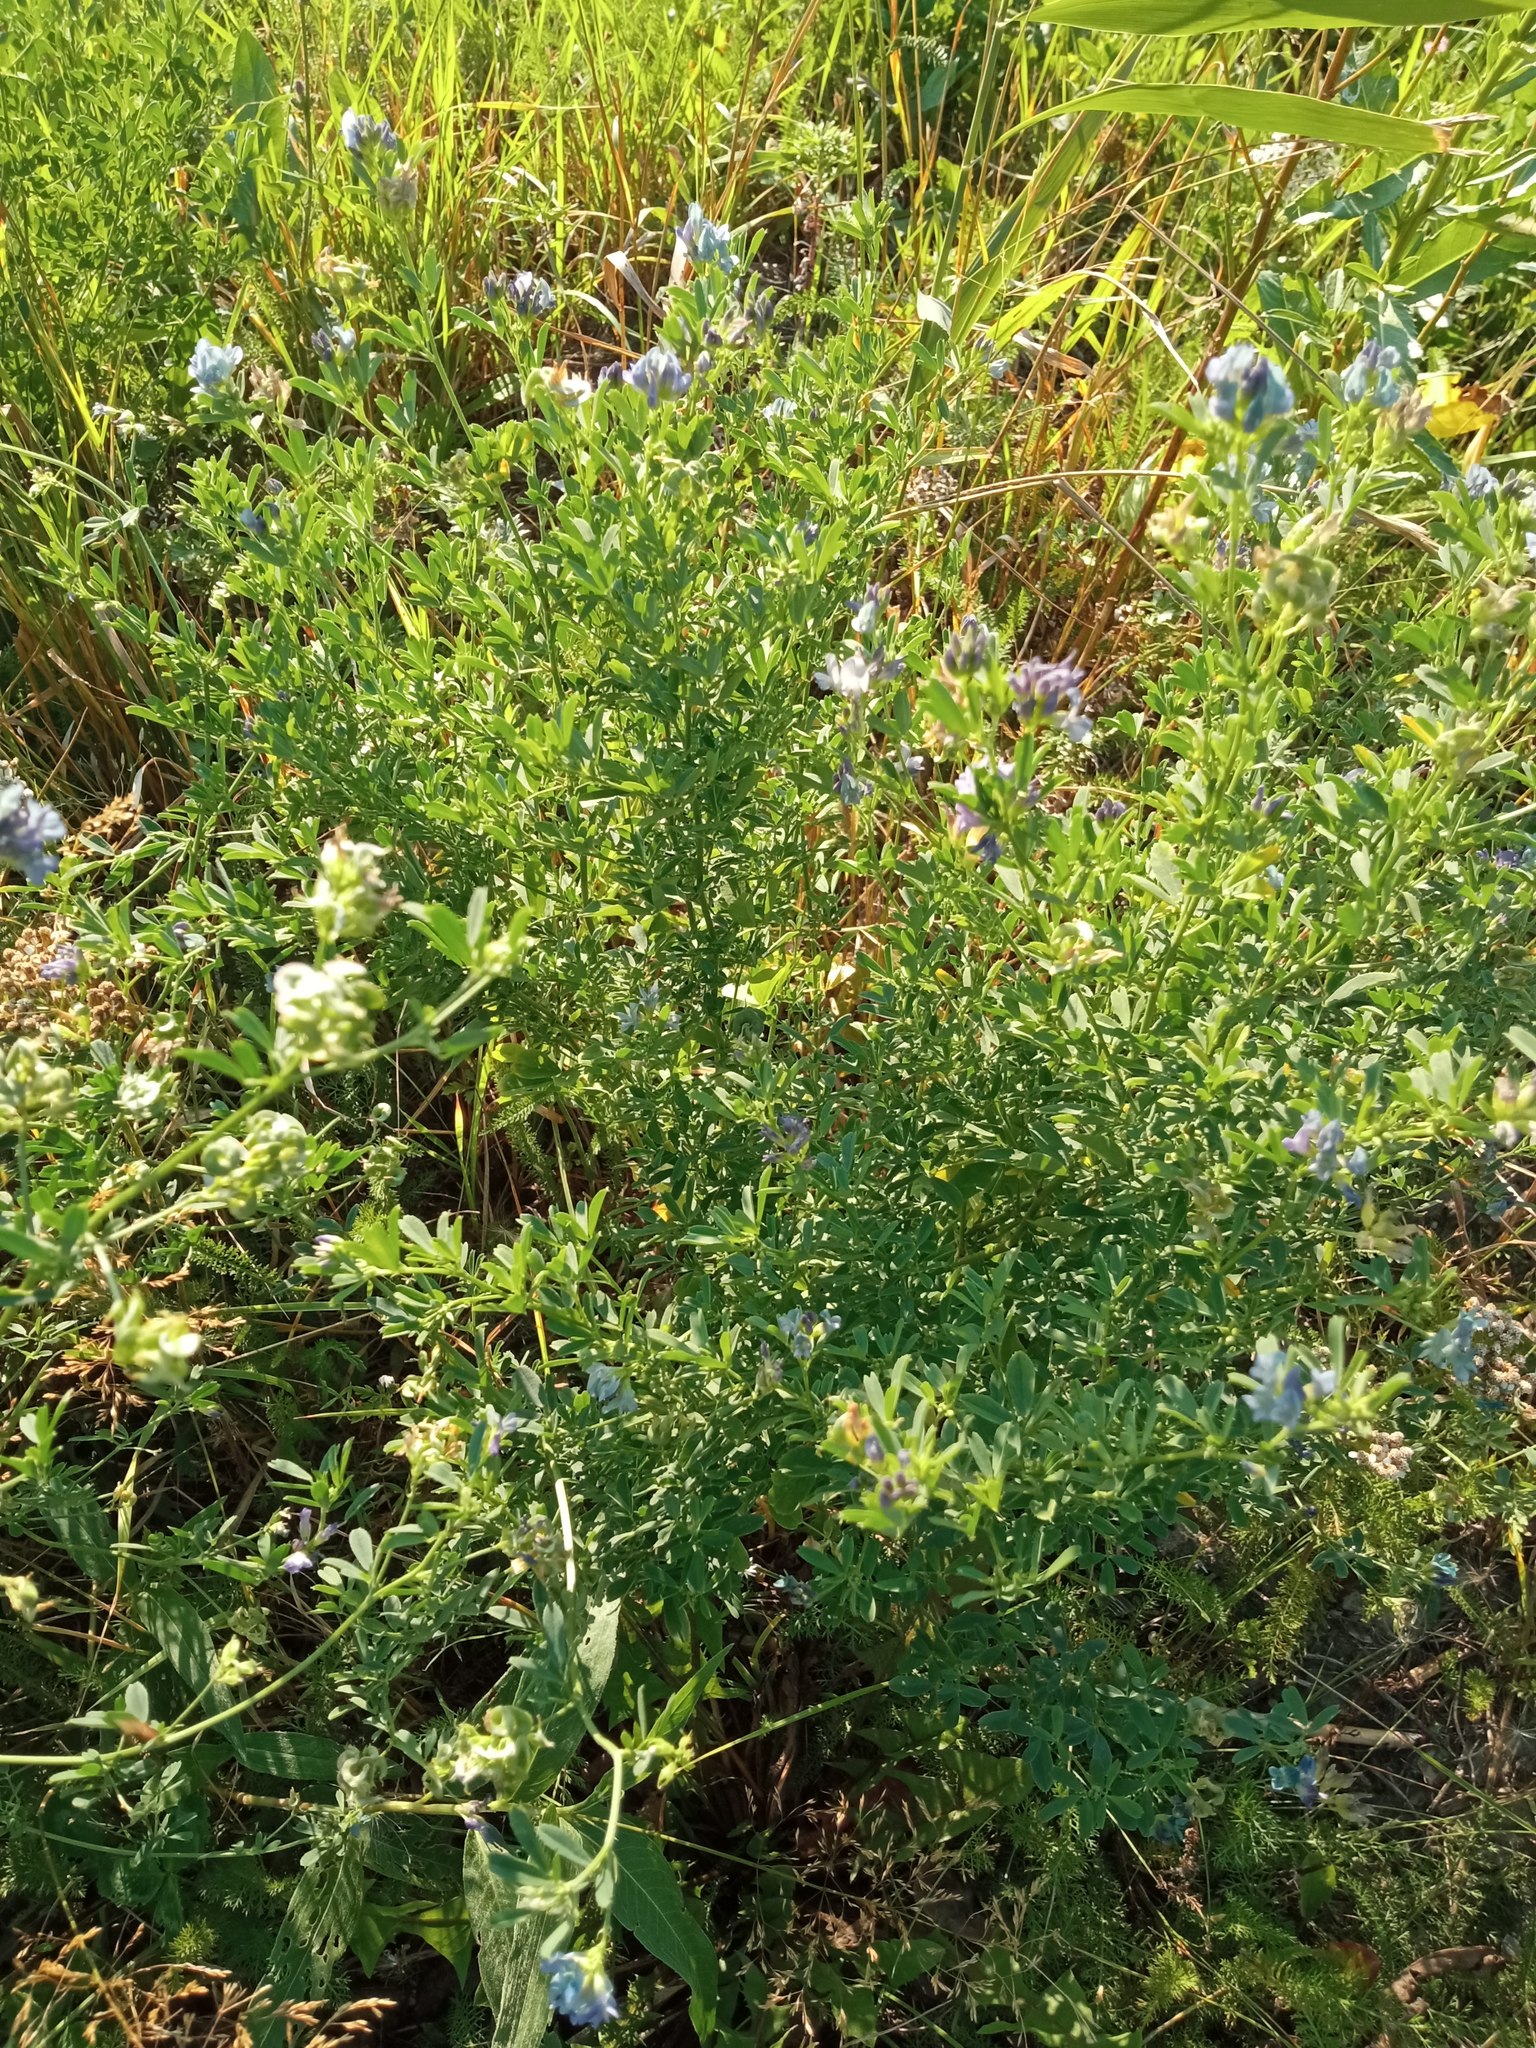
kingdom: Plantae
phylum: Tracheophyta
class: Magnoliopsida
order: Fabales
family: Fabaceae
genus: Medicago
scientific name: Medicago varia
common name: Sand lucerne
